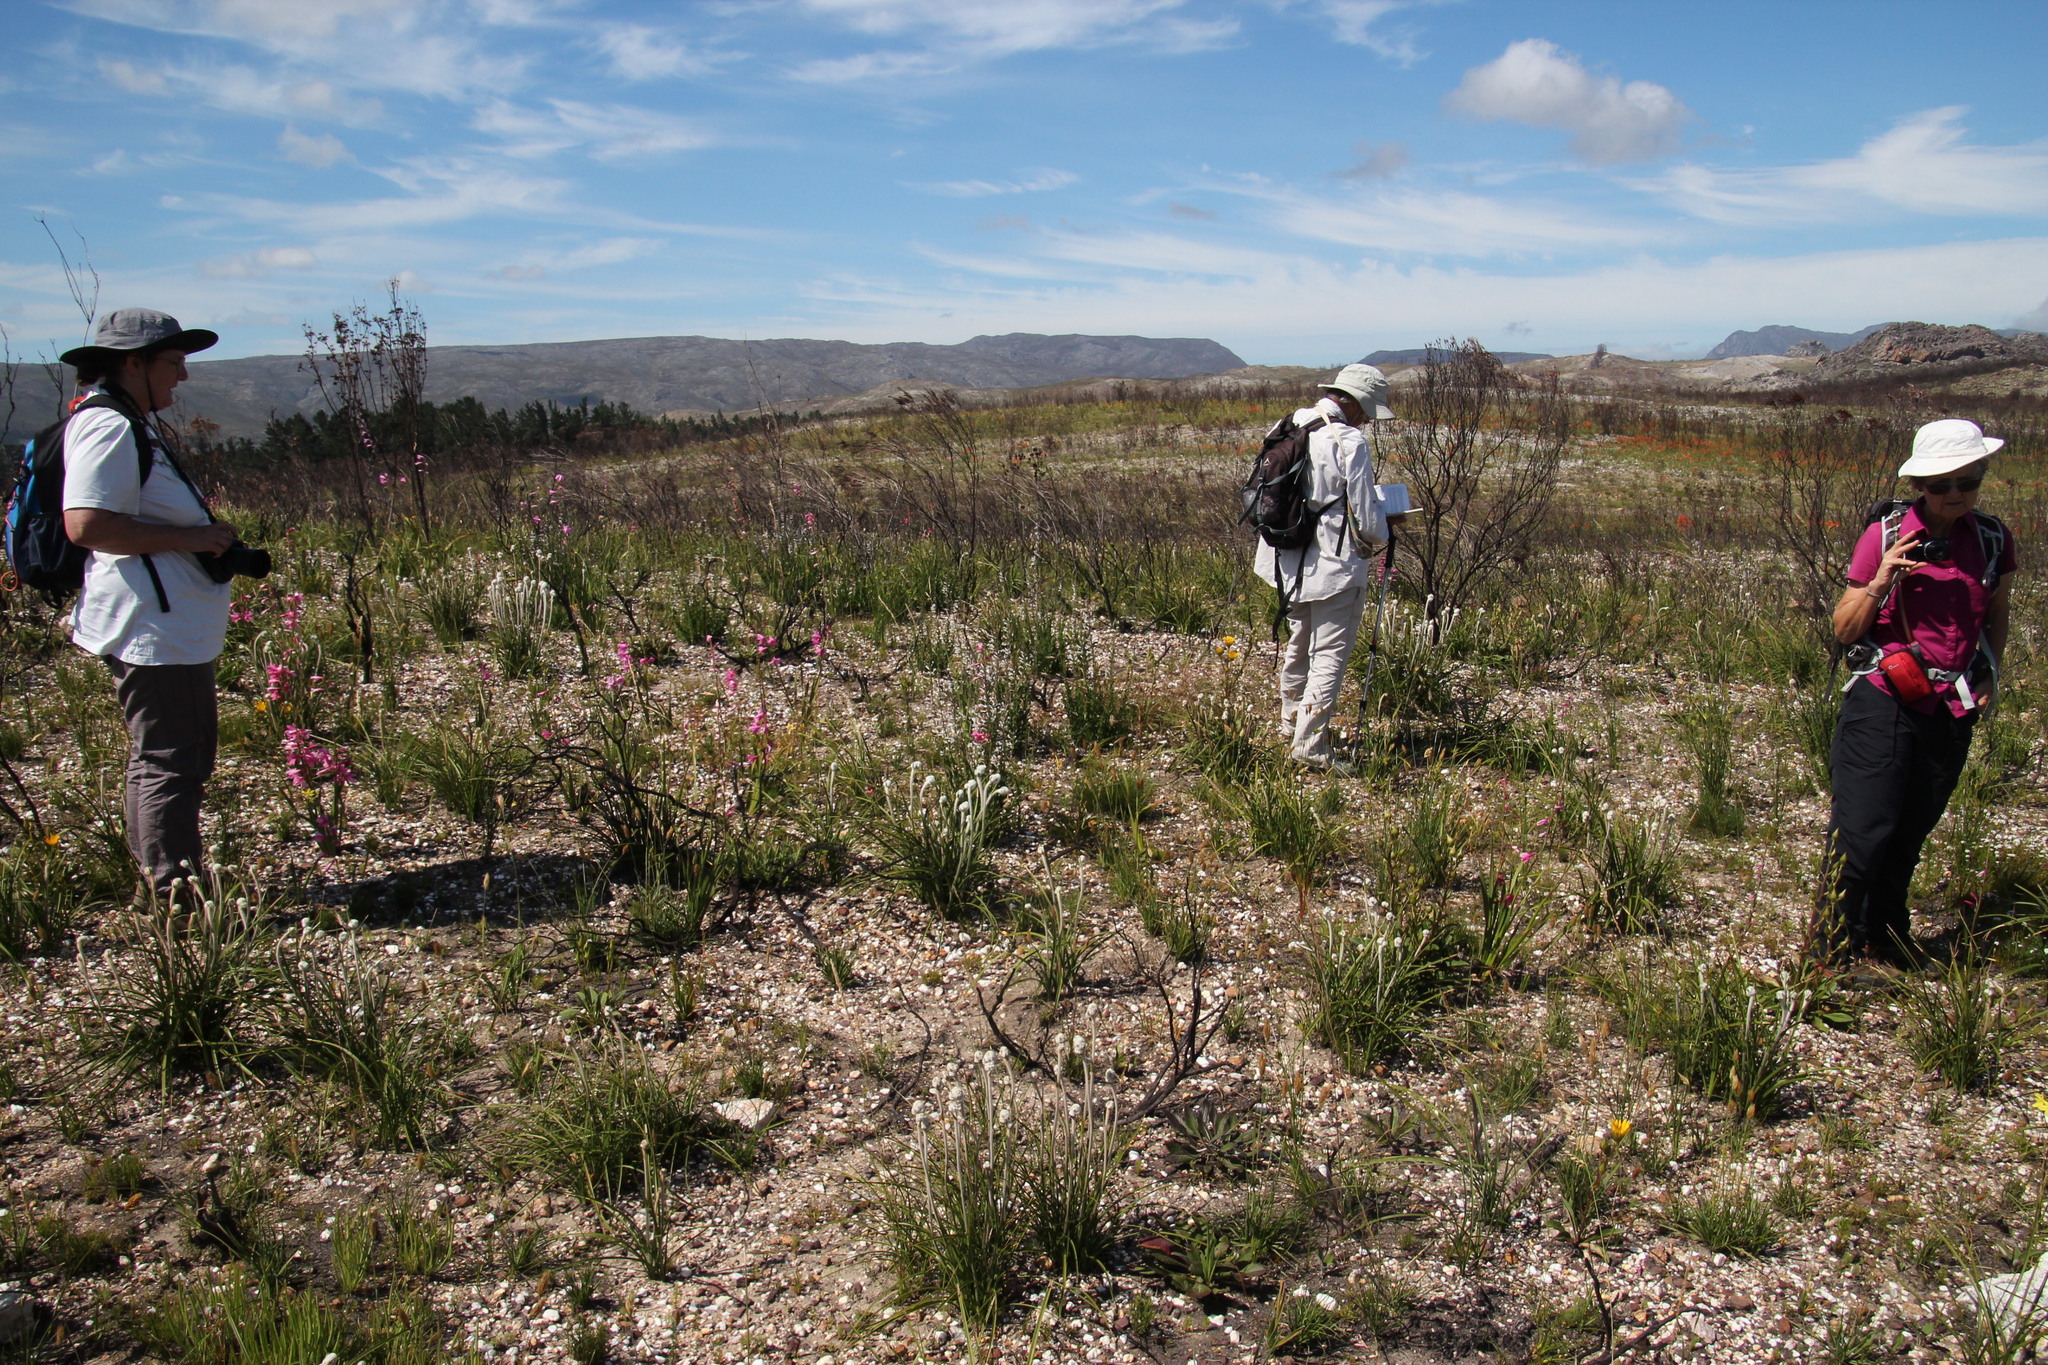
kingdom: Plantae
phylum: Tracheophyta
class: Liliopsida
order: Asparagales
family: Lanariaceae
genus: Lanaria
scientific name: Lanaria lanata
